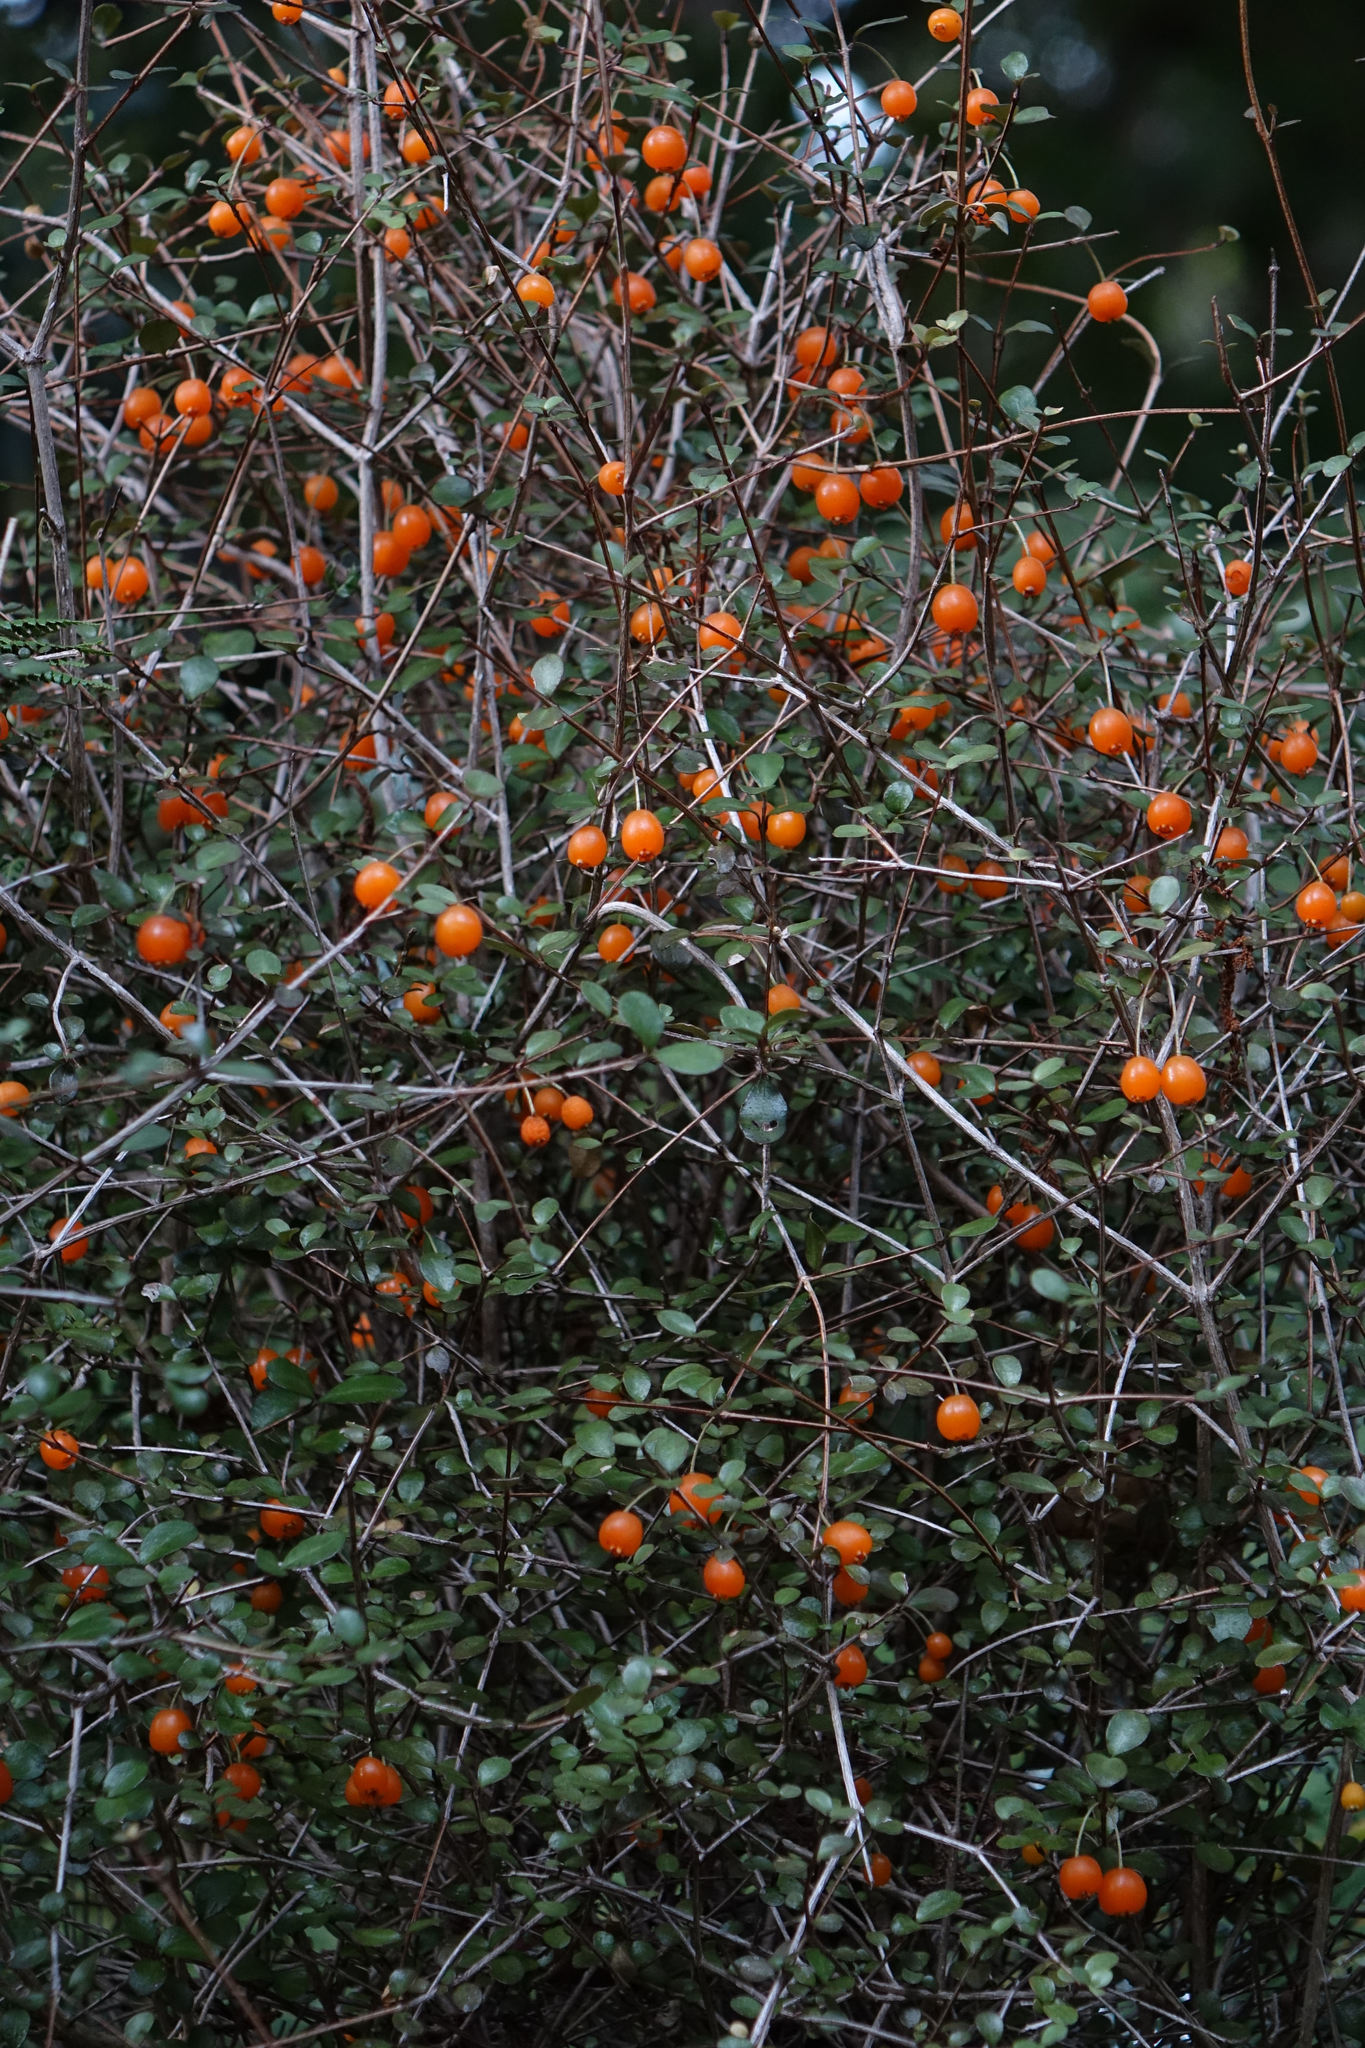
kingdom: Plantae
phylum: Tracheophyta
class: Magnoliopsida
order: Myrtales
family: Myrtaceae
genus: Neomyrtus
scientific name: Neomyrtus pedunculata
